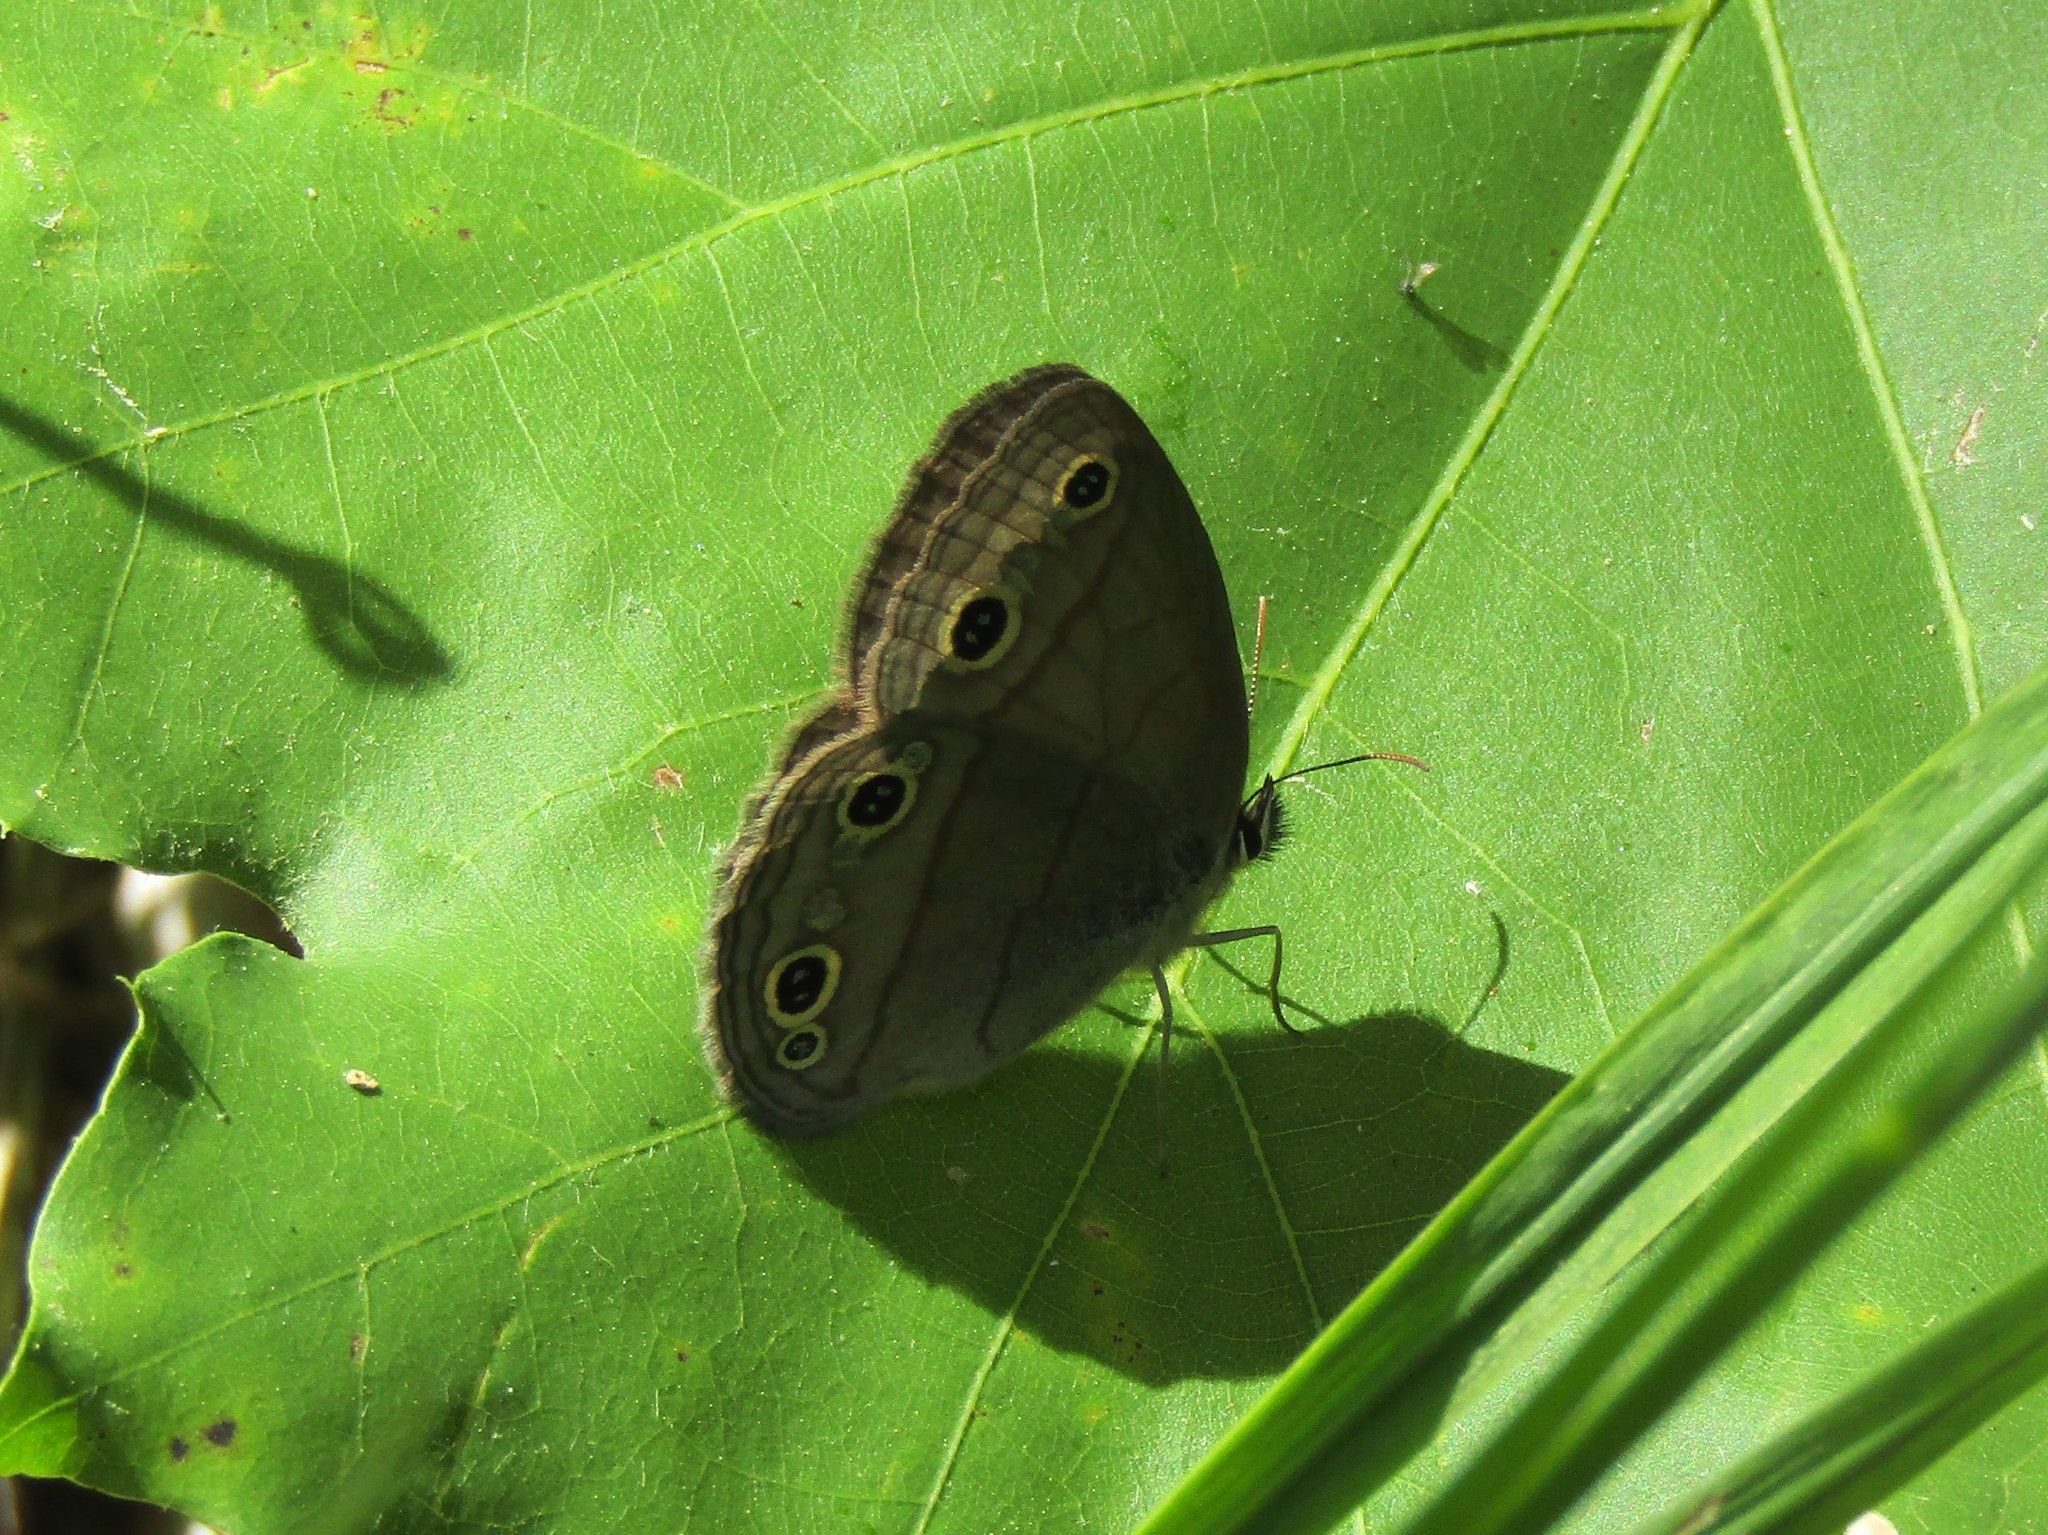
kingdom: Animalia
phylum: Arthropoda
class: Insecta
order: Lepidoptera
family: Nymphalidae
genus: Euptychia
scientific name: Euptychia cymela
